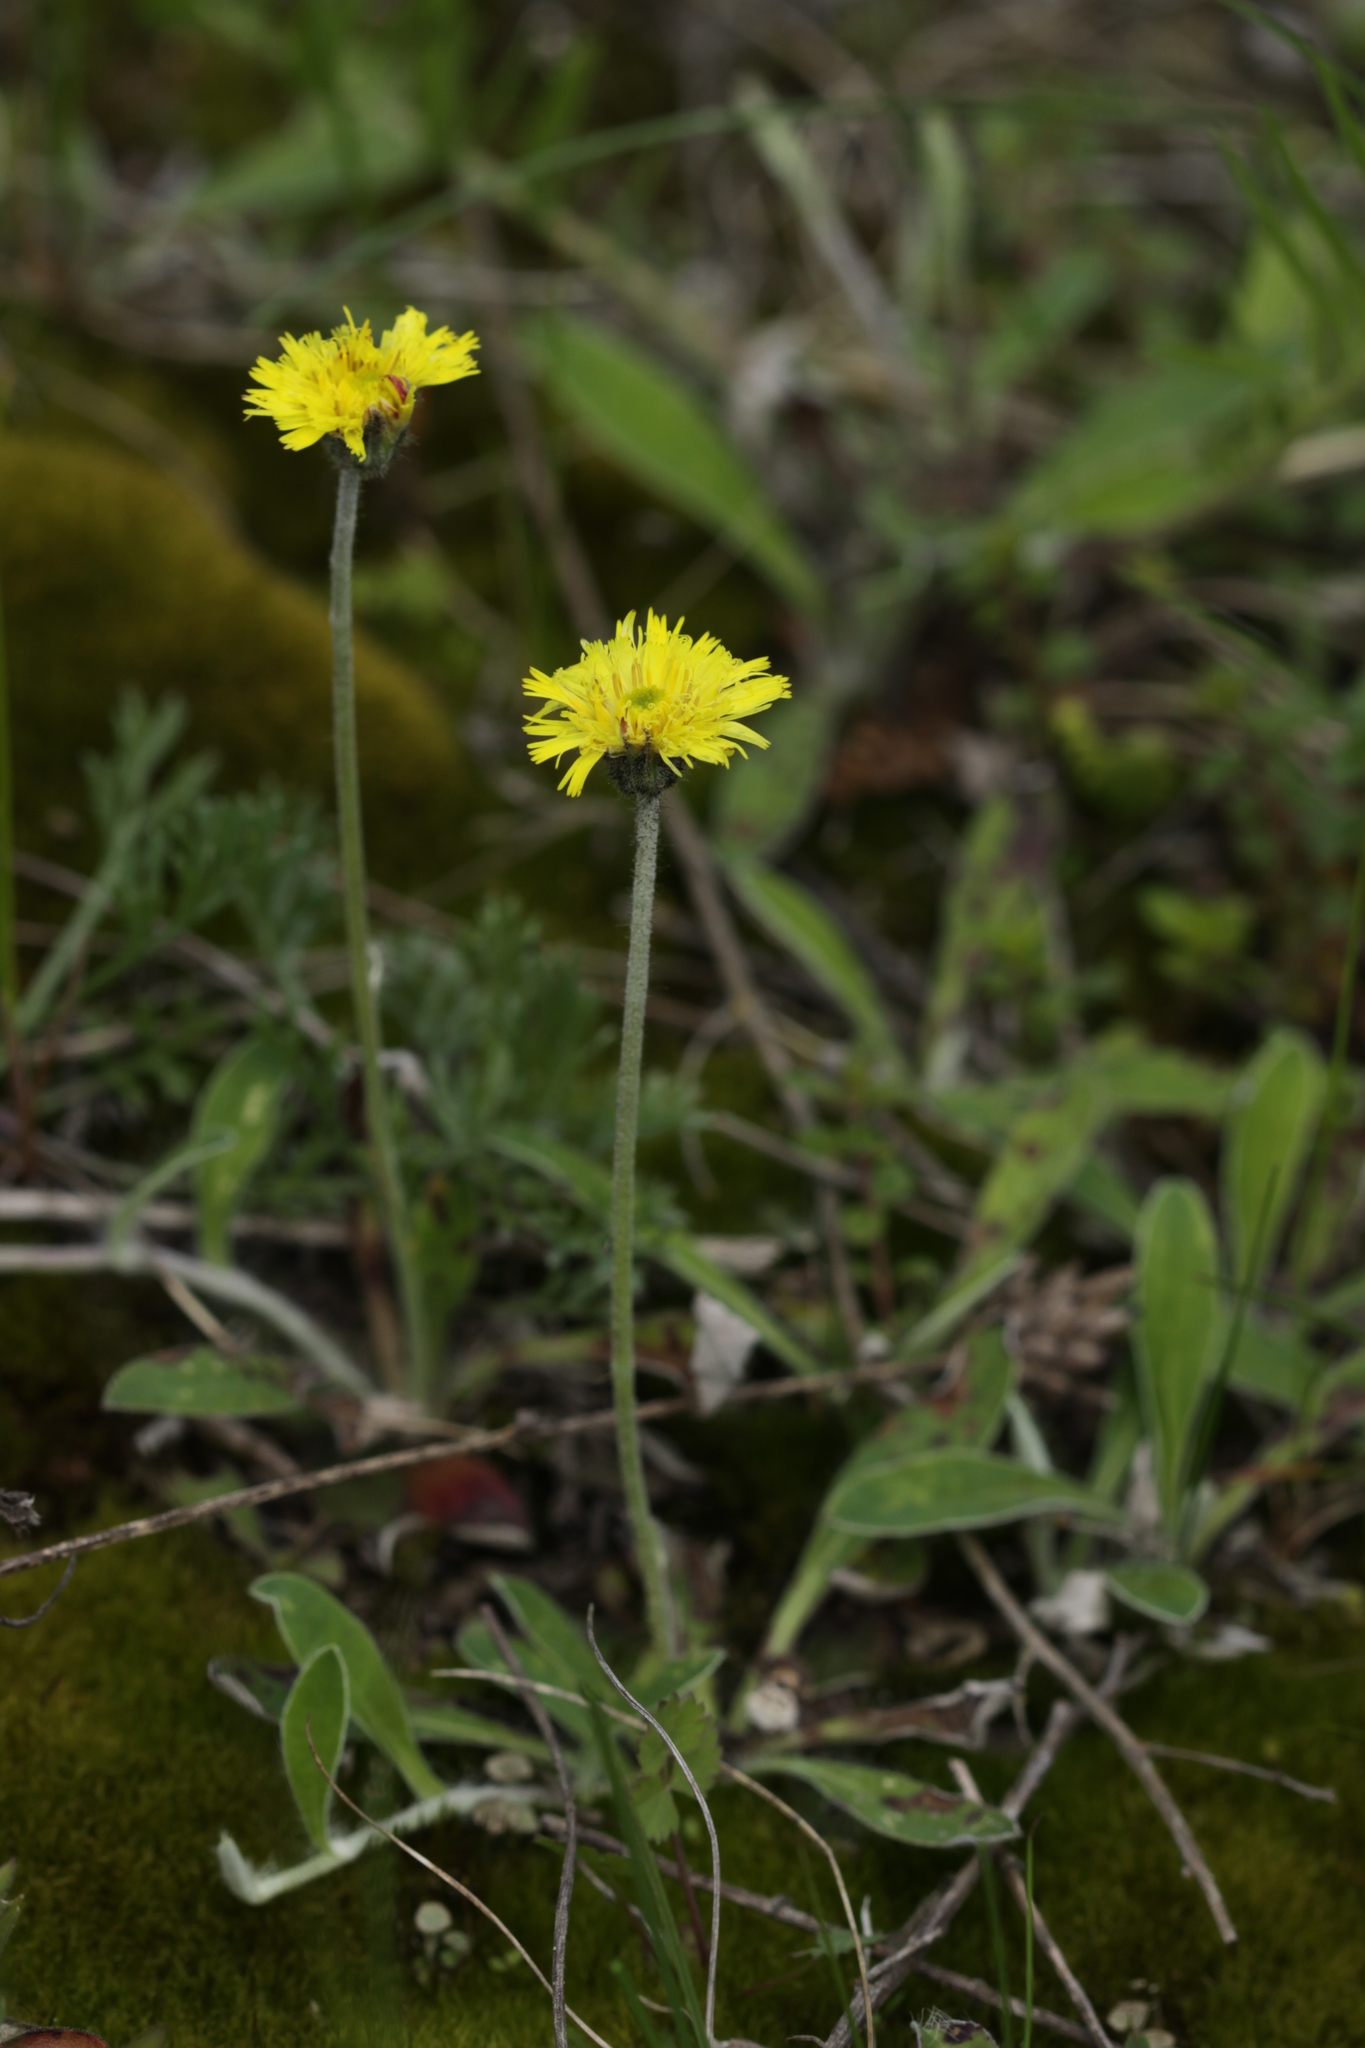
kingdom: Plantae
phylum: Tracheophyta
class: Magnoliopsida
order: Asterales
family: Asteraceae
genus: Pilosella
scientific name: Pilosella officinarum
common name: Mouse-ear hawkweed
